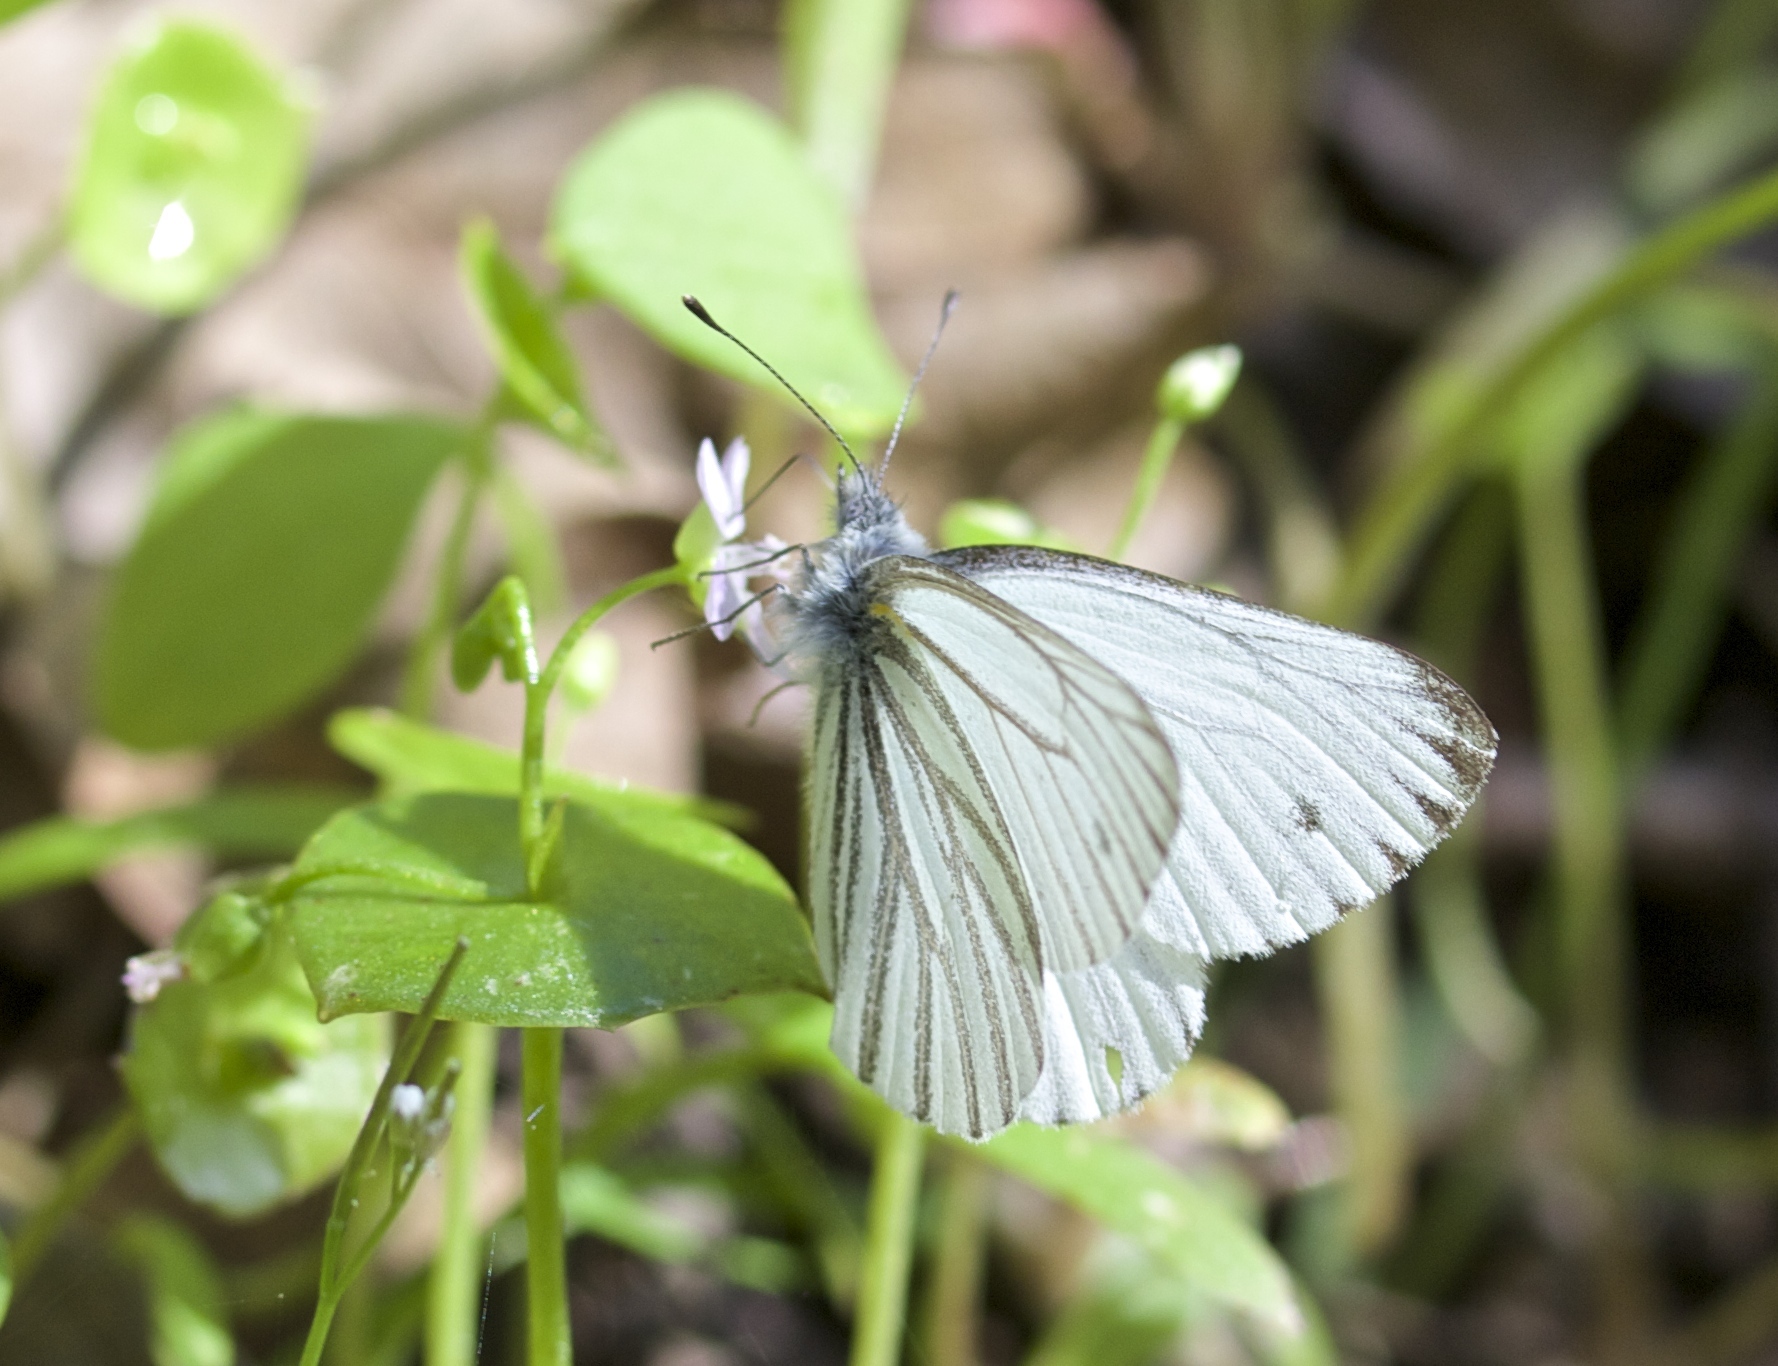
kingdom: Animalia
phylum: Arthropoda
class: Insecta
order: Lepidoptera
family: Pieridae
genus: Pieris
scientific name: Pieris marginalis
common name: Margined white
